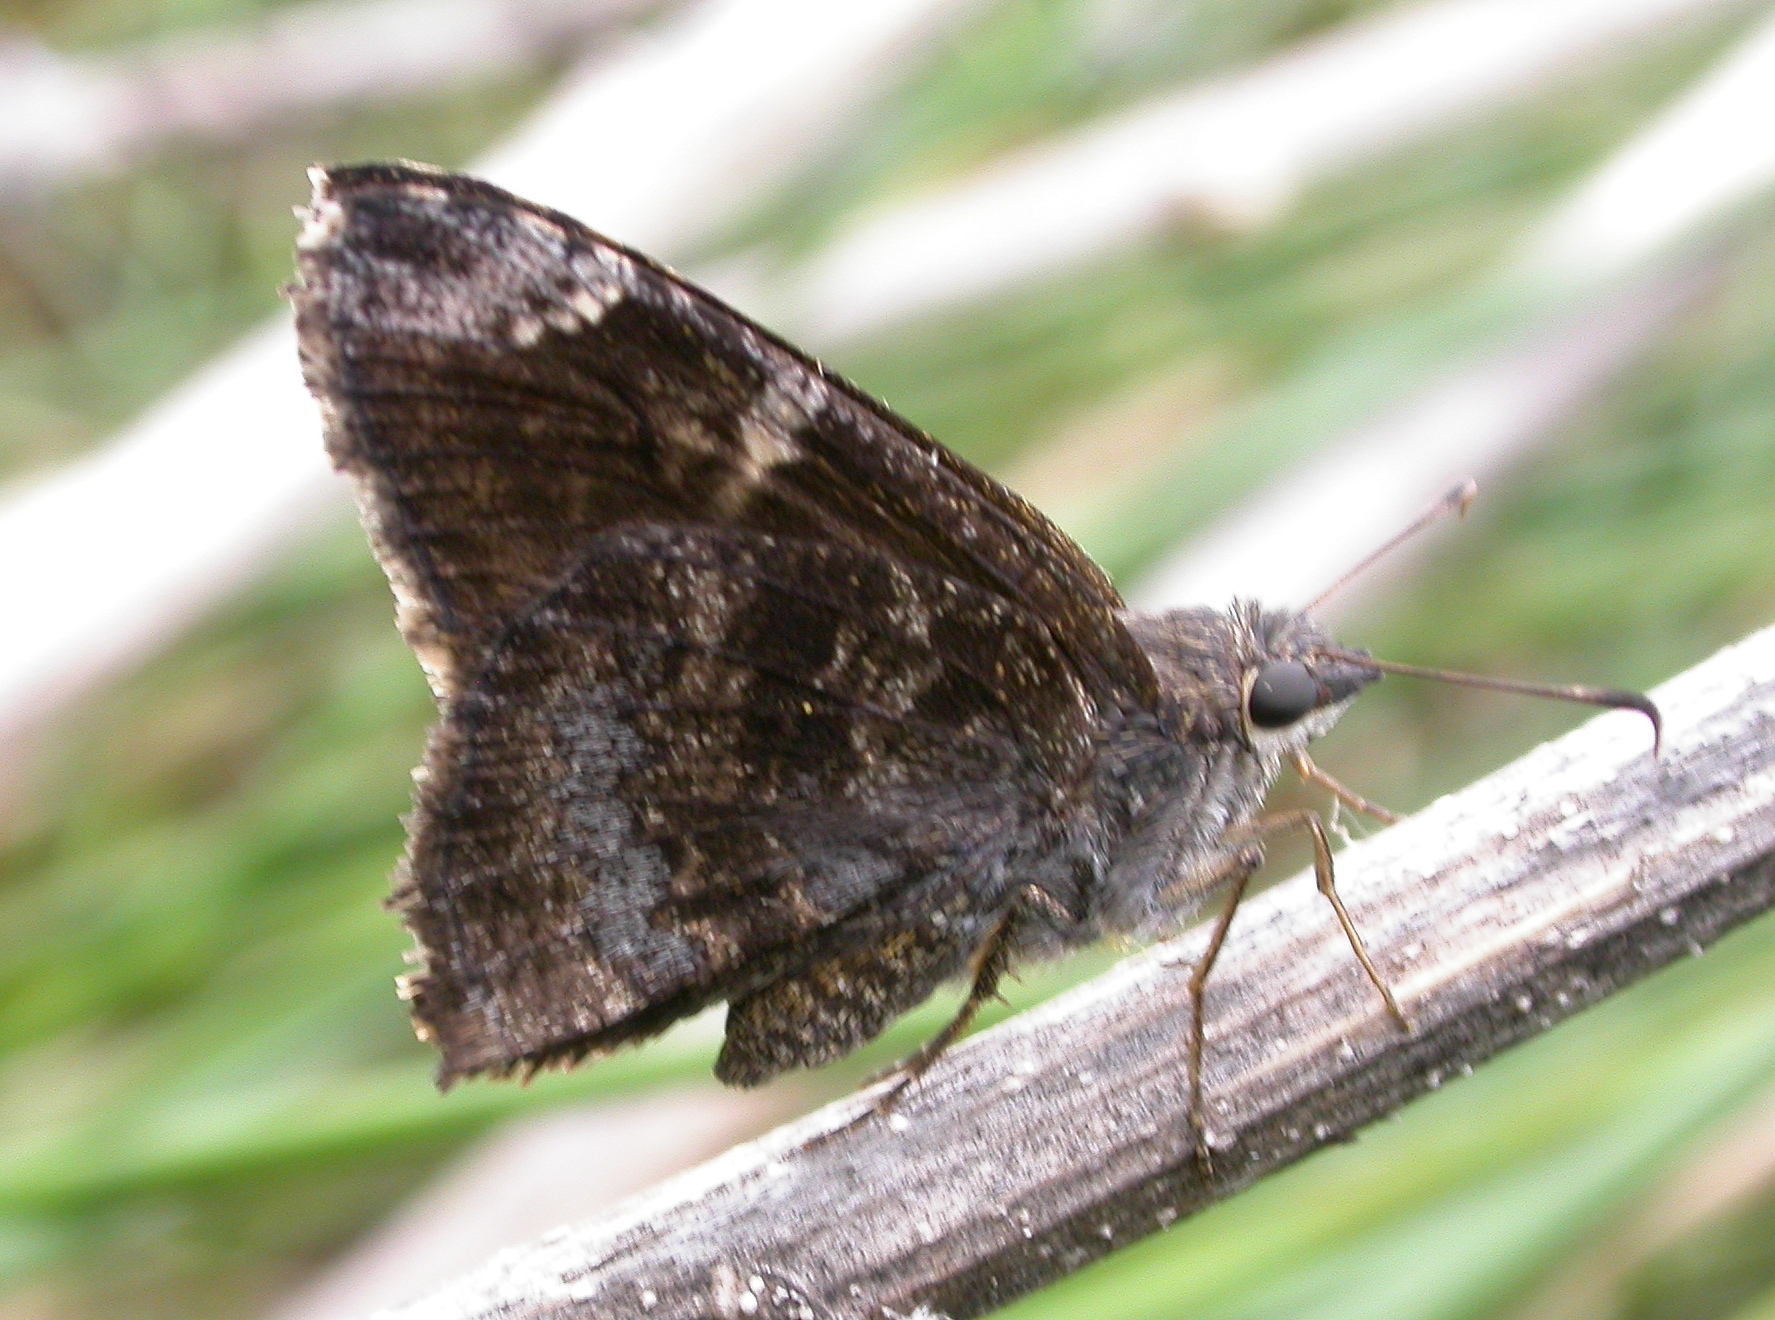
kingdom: Animalia
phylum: Arthropoda
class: Insecta
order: Lepidoptera
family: Hesperiidae
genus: Caicella
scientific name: Caicella calchas
